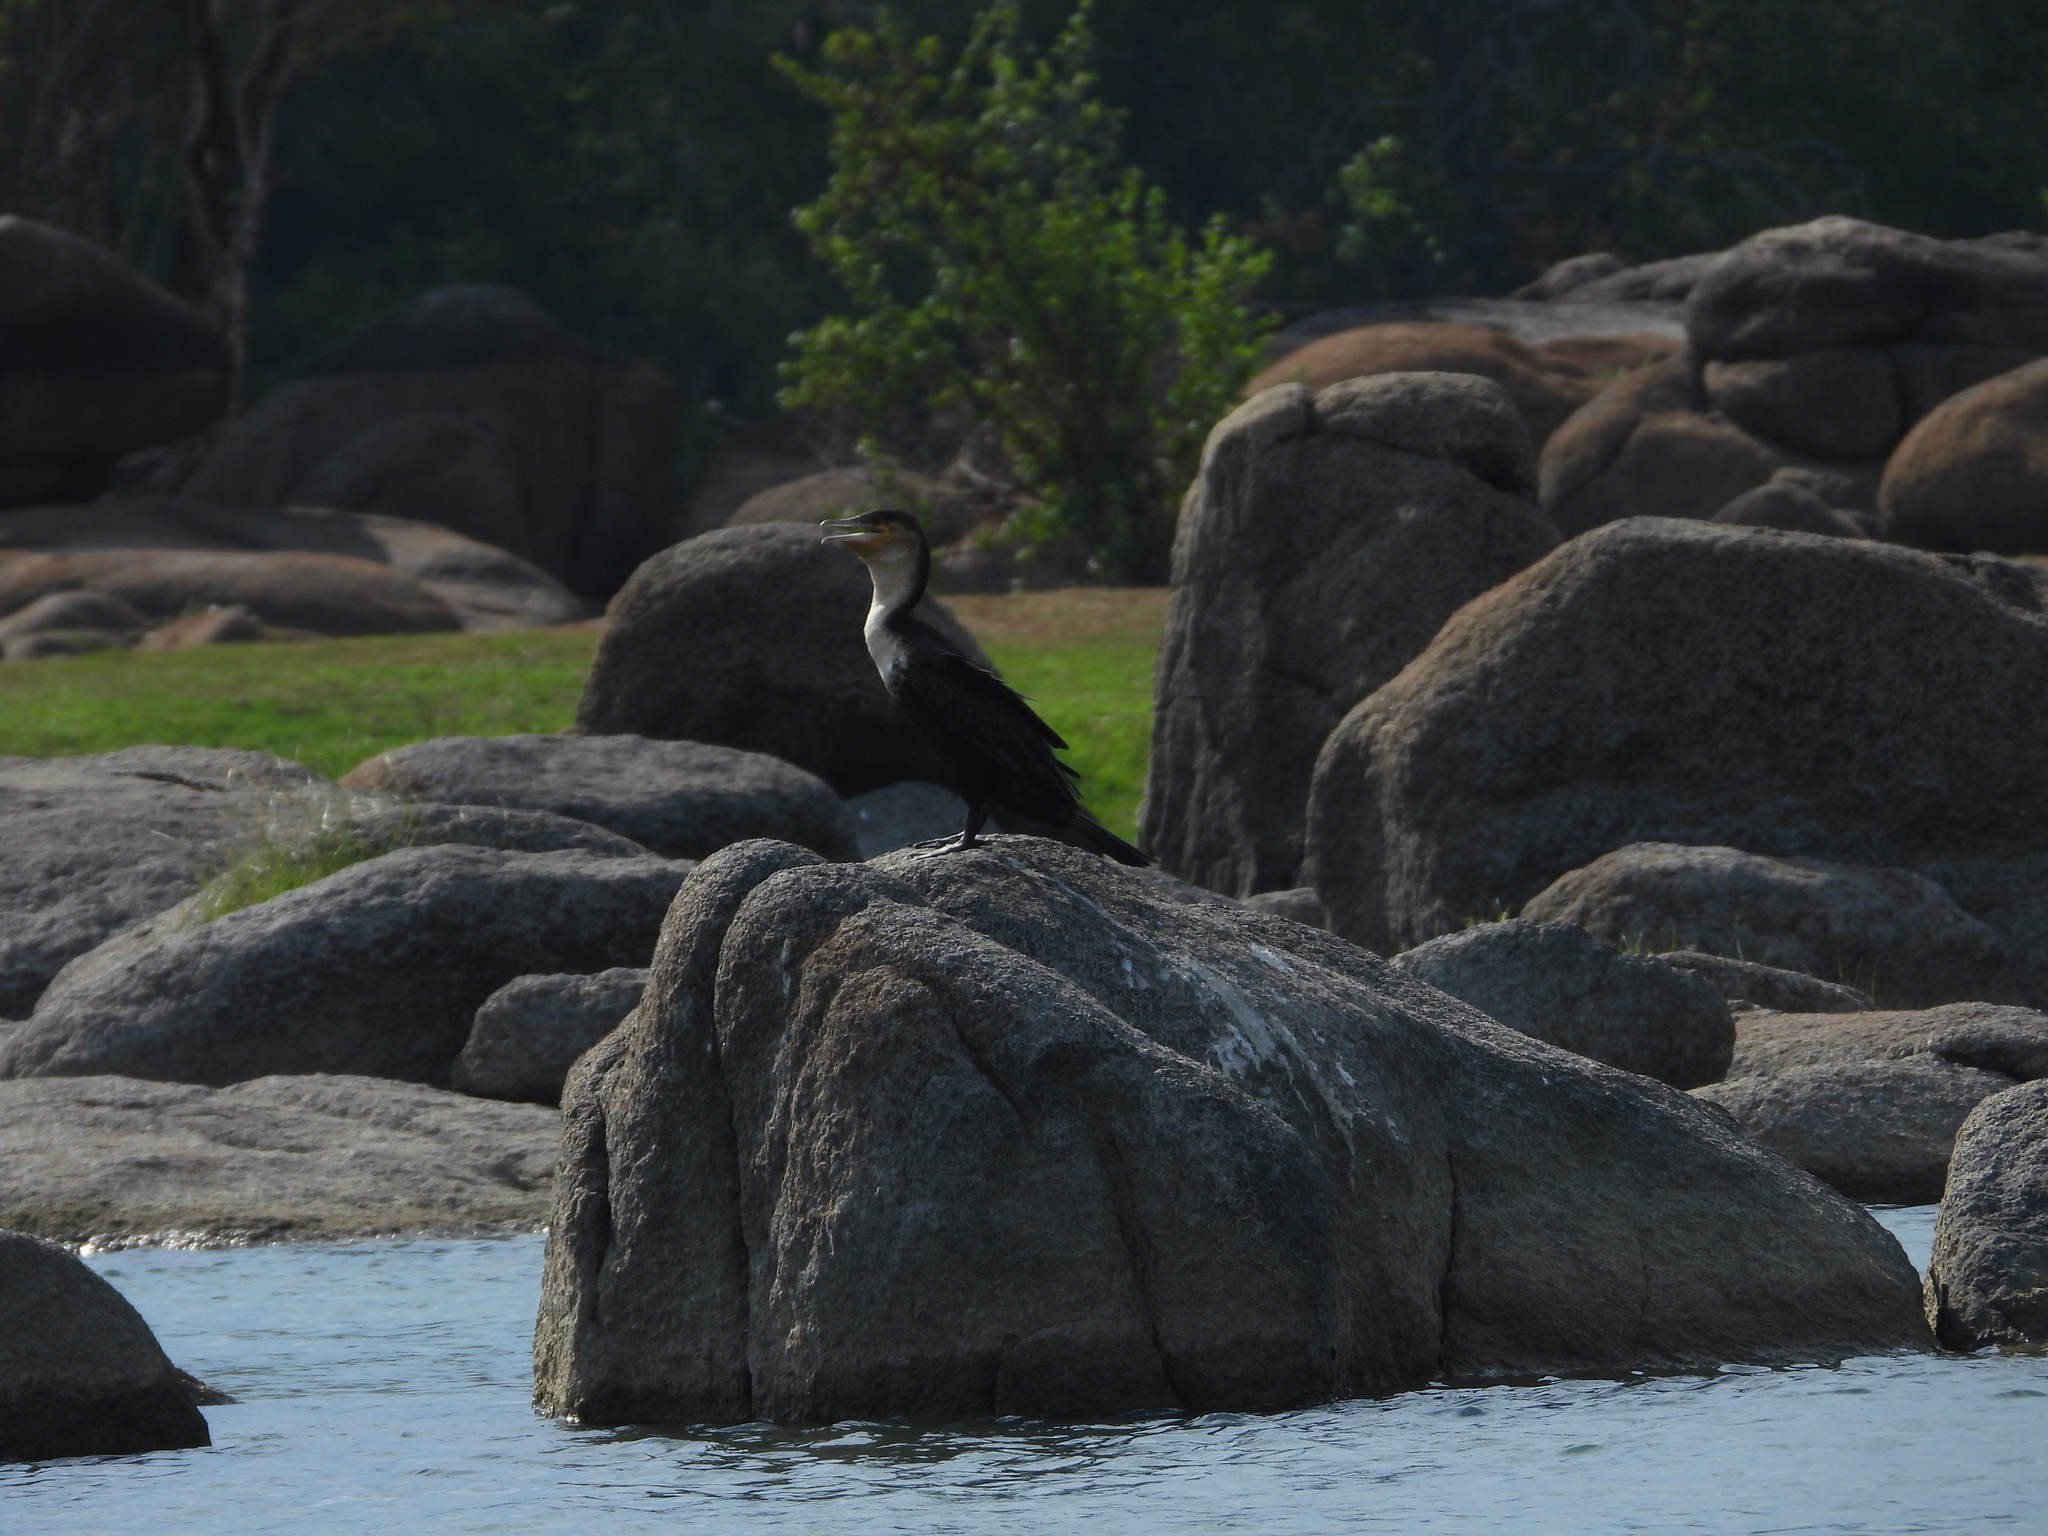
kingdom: Animalia
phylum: Chordata
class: Aves
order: Suliformes
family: Phalacrocoracidae
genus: Phalacrocorax
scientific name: Phalacrocorax carbo
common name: Great cormorant
